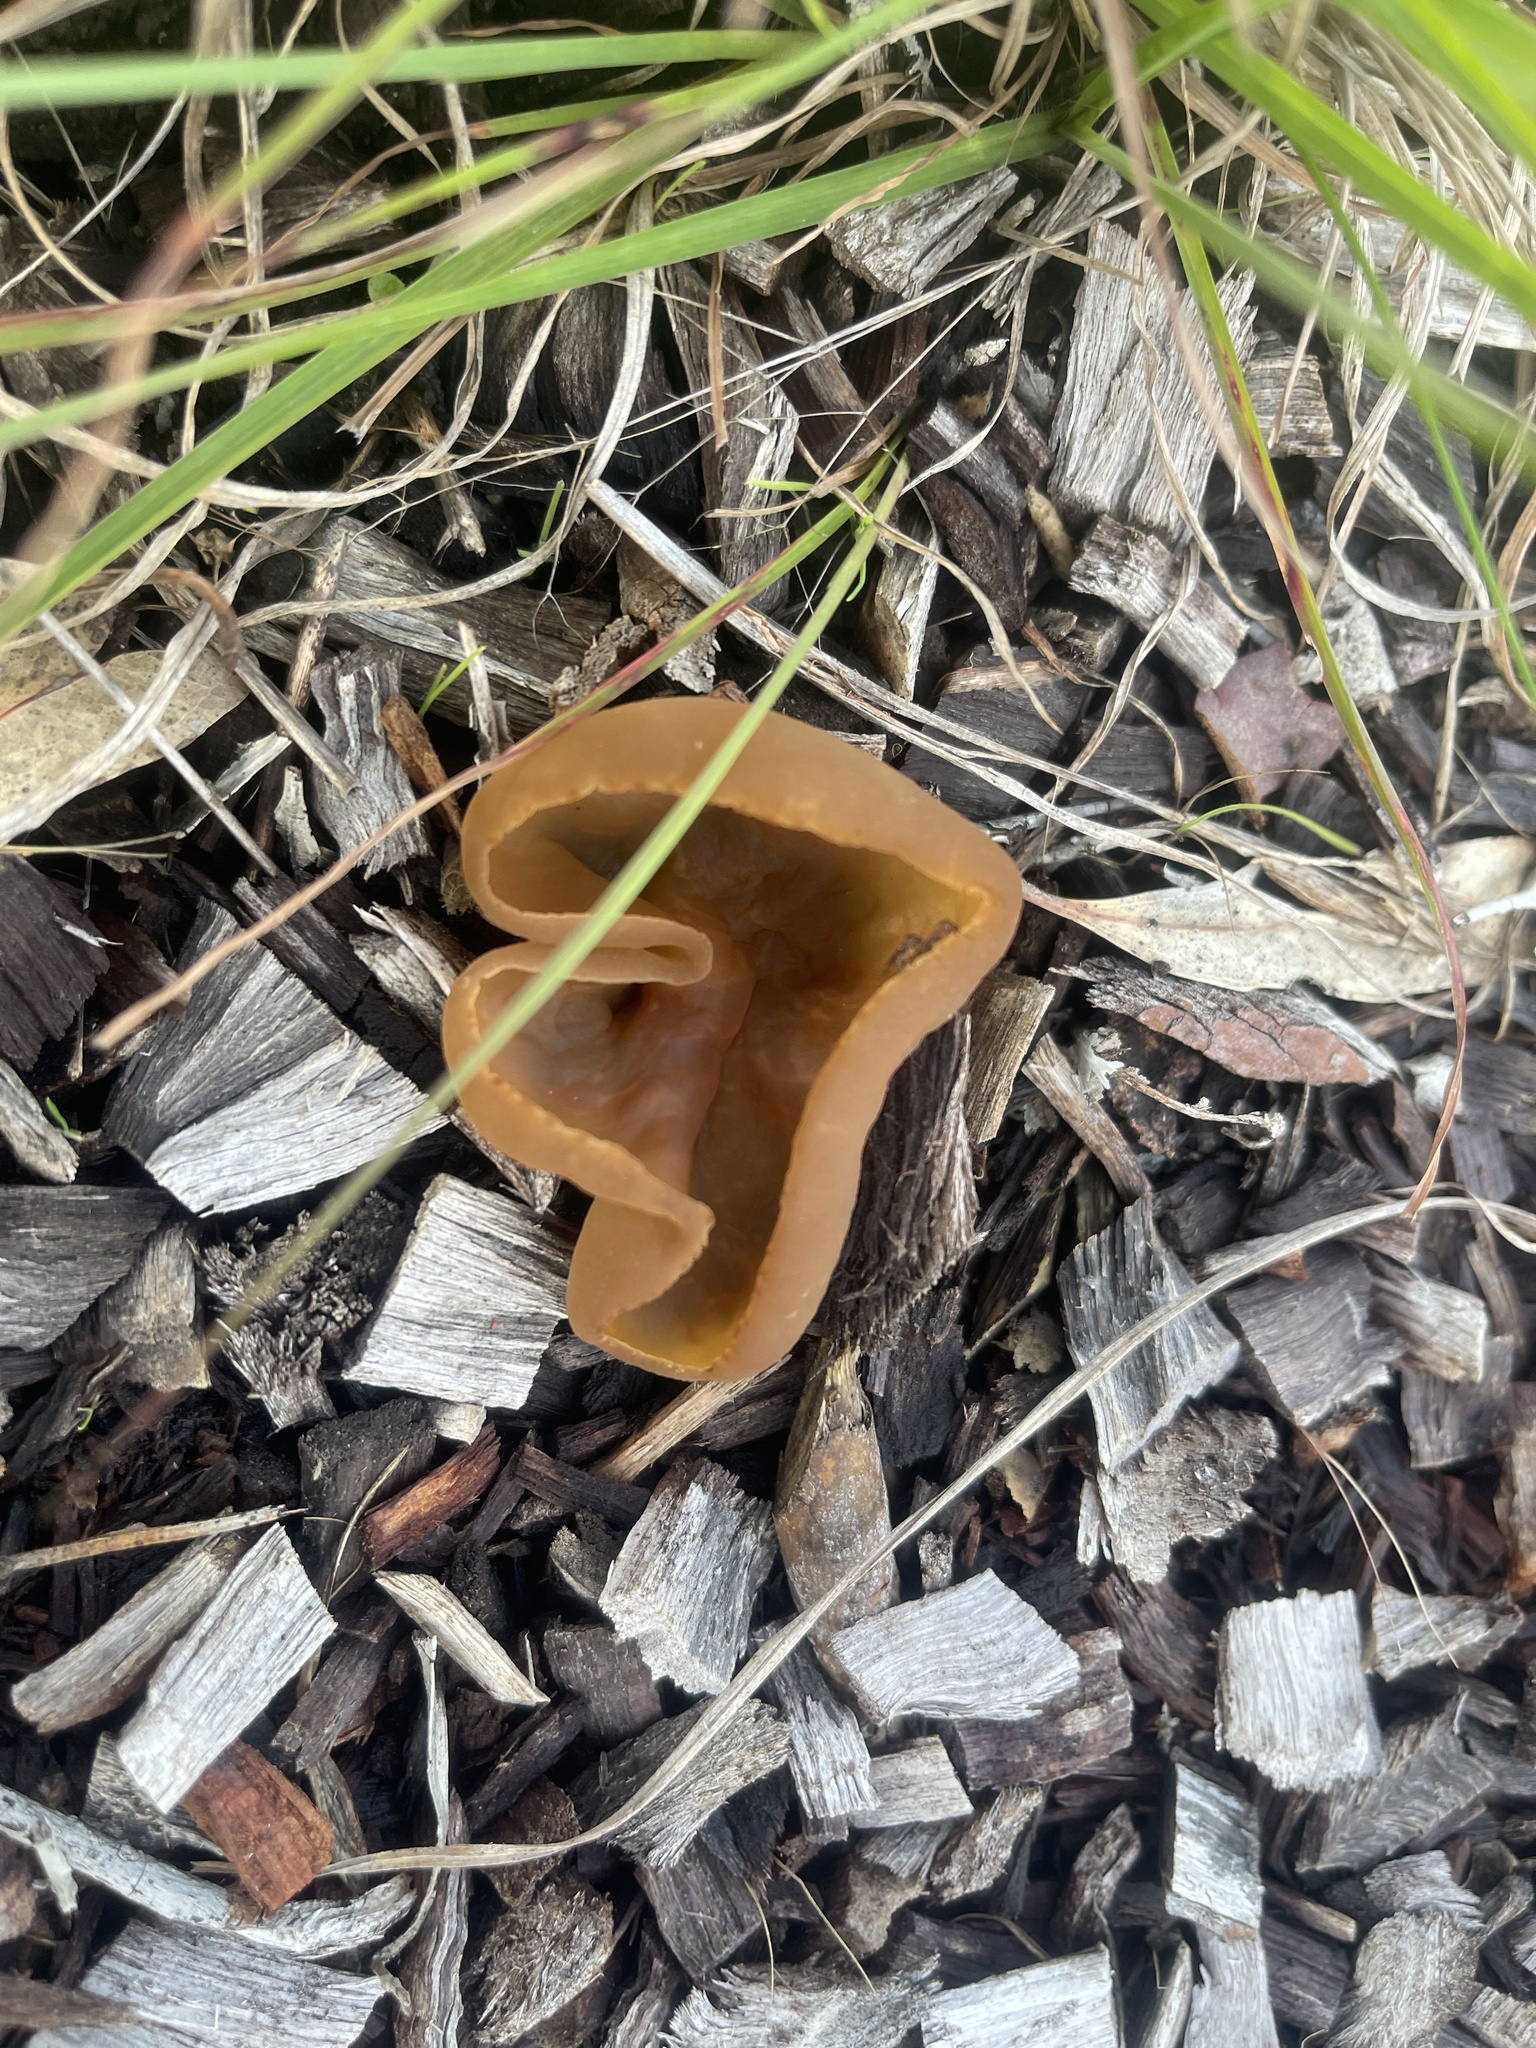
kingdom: Fungi
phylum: Ascomycota
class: Pezizomycetes
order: Pezizales
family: Pezizaceae
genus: Peziza
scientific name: Peziza varia
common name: Layered cup
